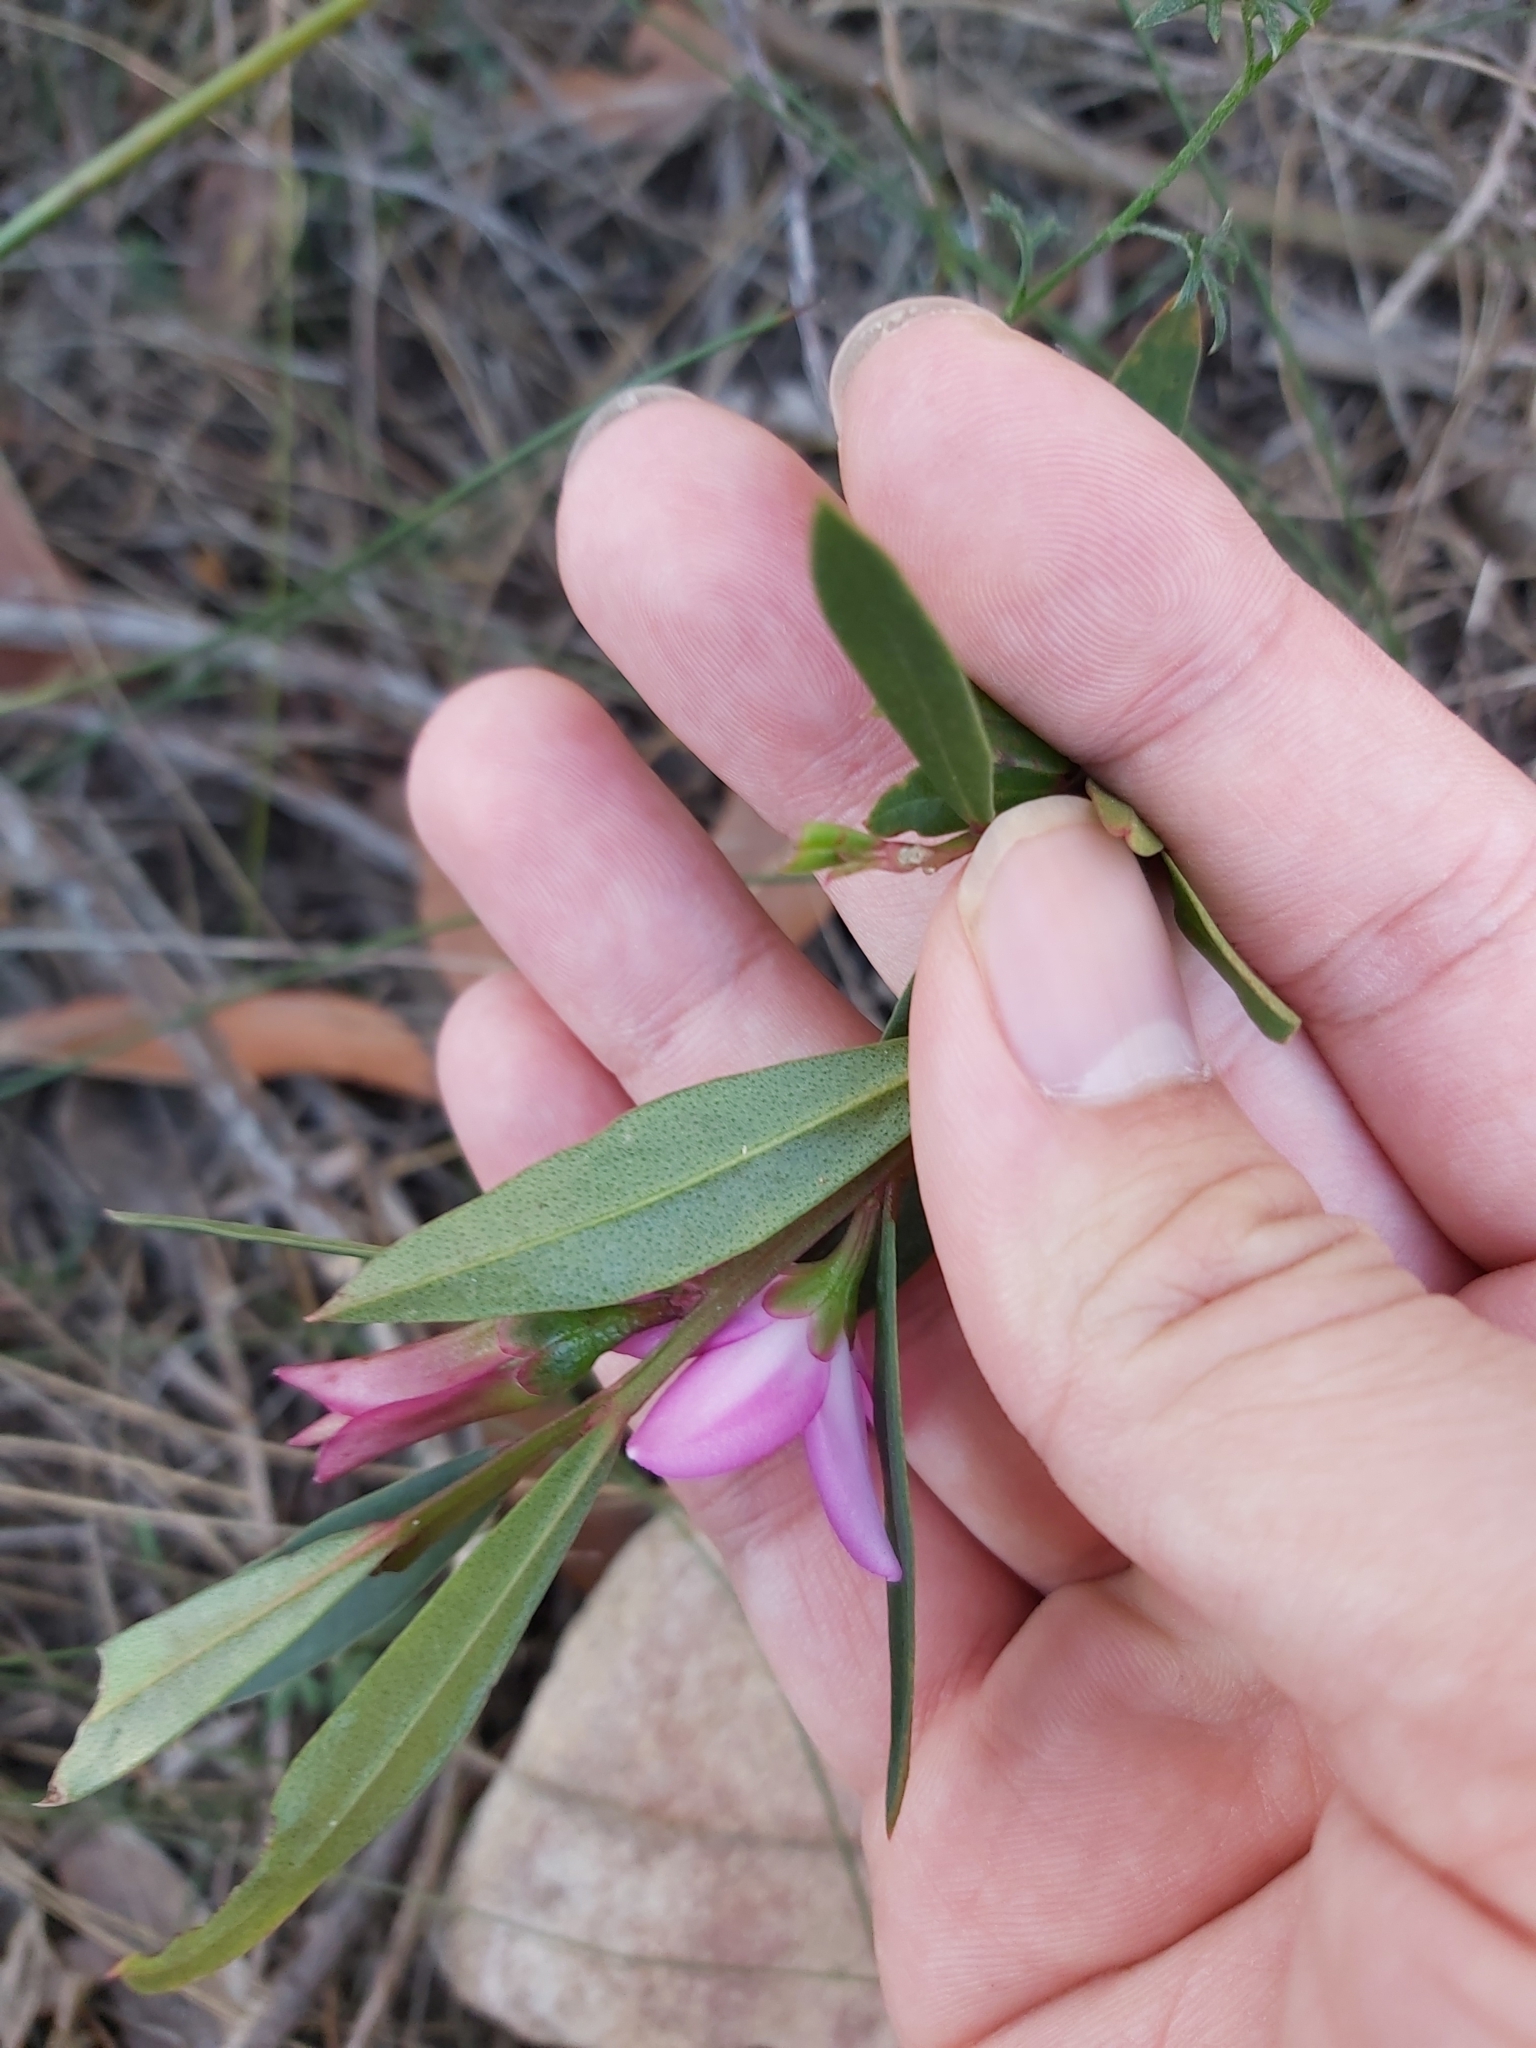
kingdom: Plantae
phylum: Tracheophyta
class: Magnoliopsida
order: Sapindales
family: Rutaceae
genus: Crowea
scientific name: Crowea saligna
